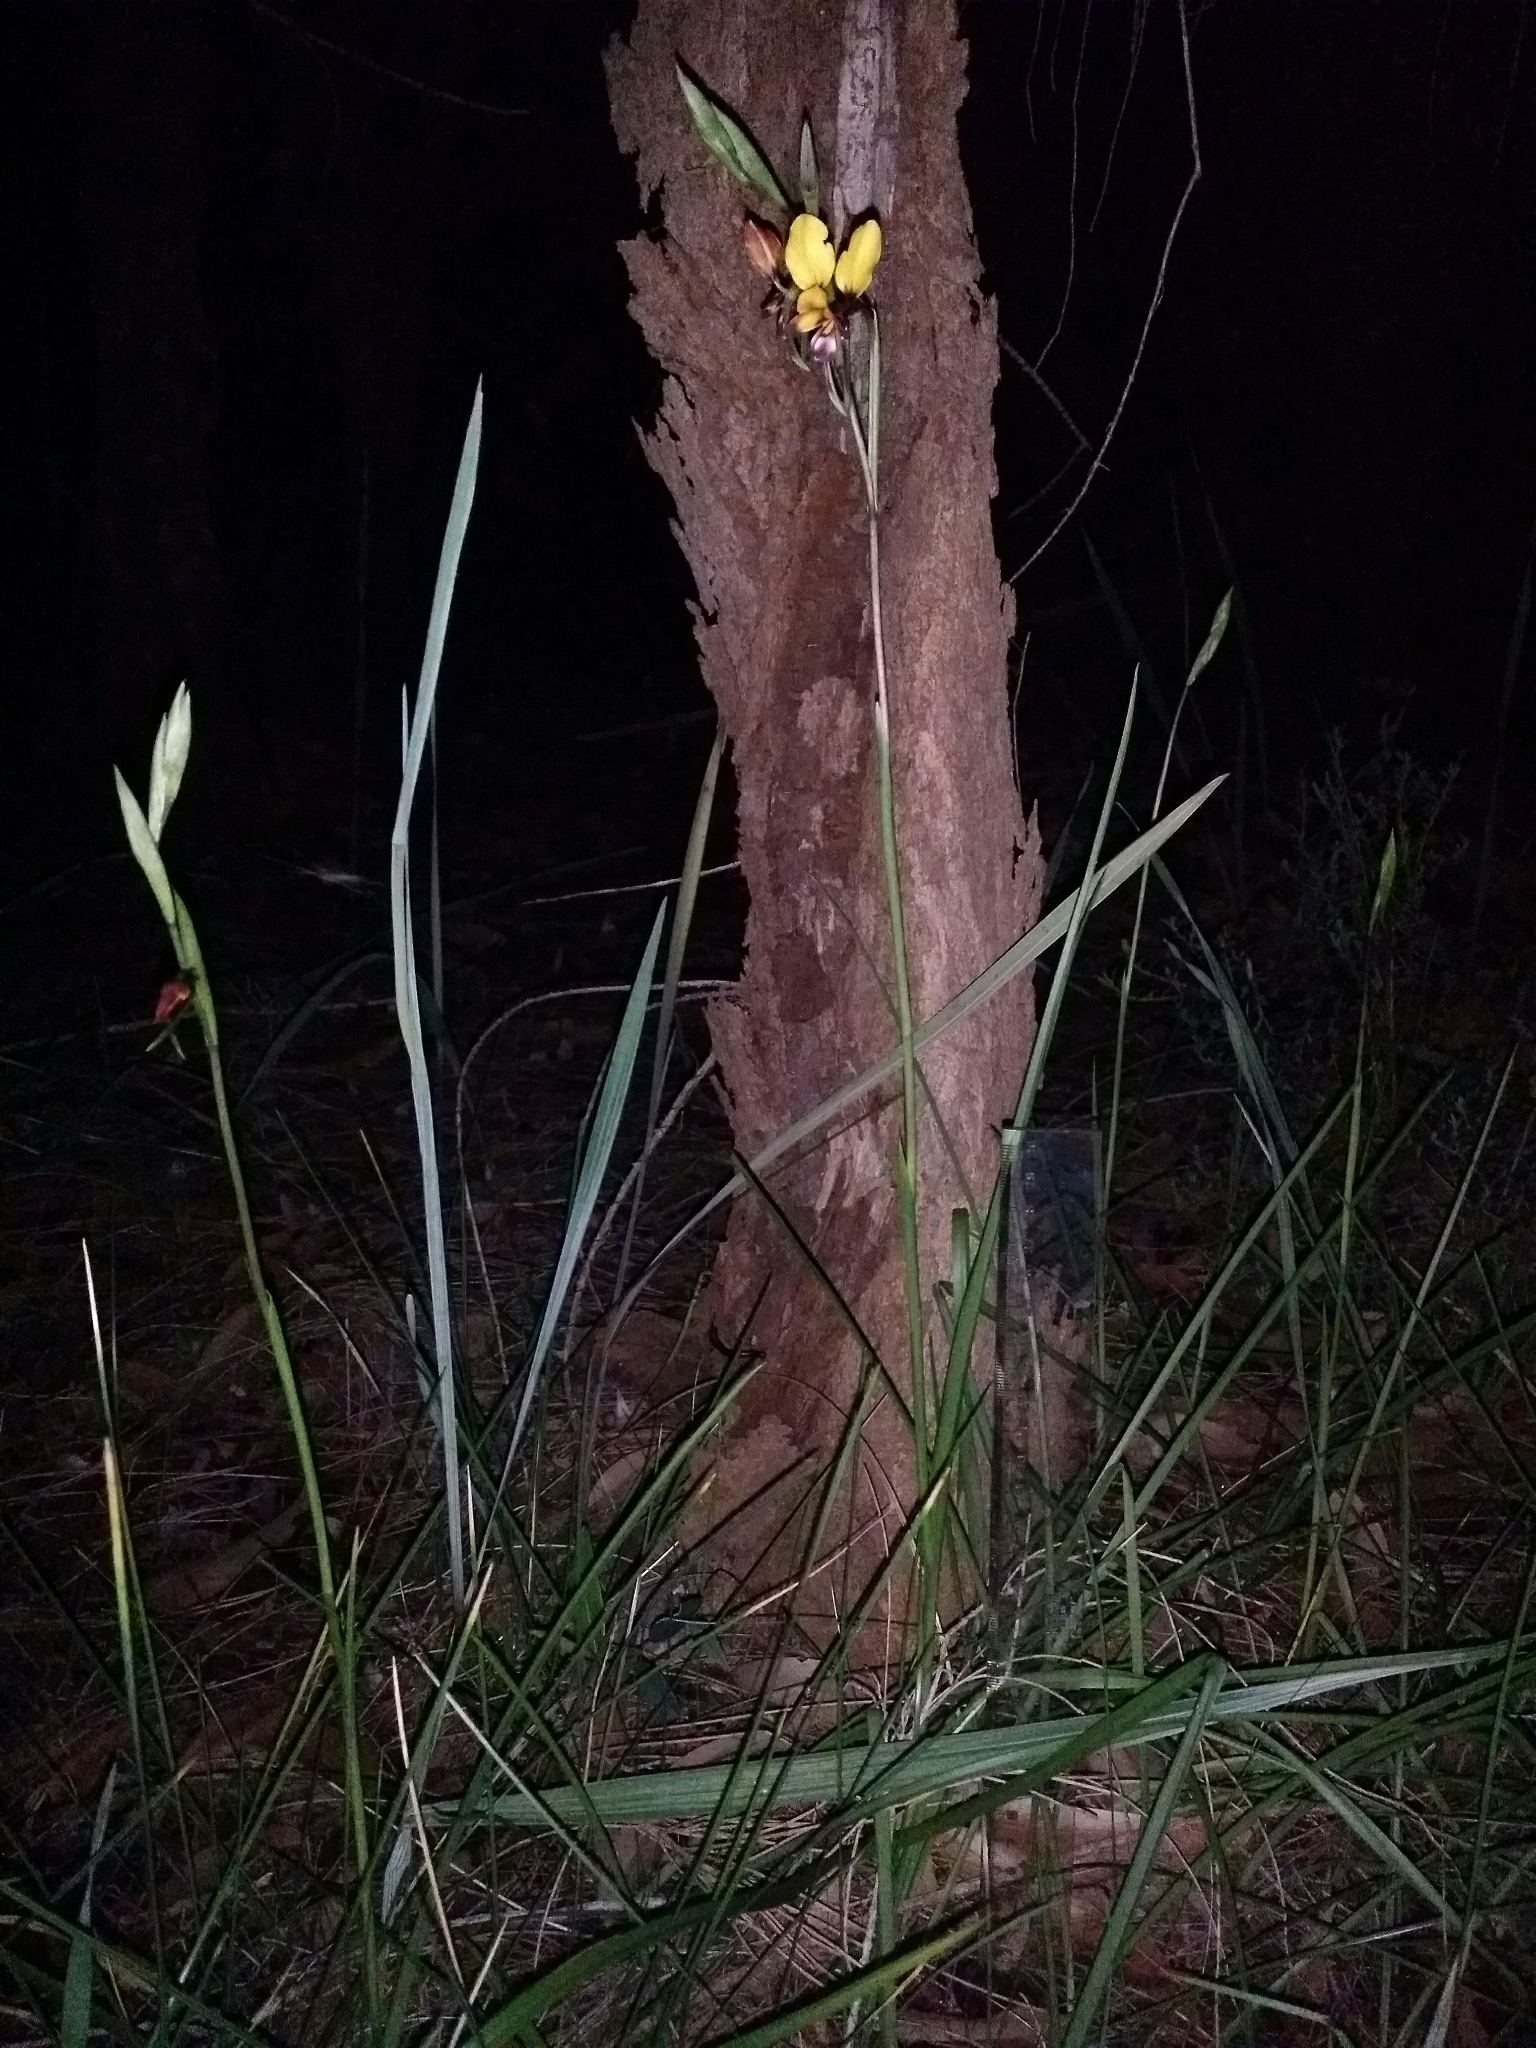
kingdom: Plantae
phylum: Tracheophyta
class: Liliopsida
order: Asparagales
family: Orchidaceae
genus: Diuris
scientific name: Diuris magnifica
